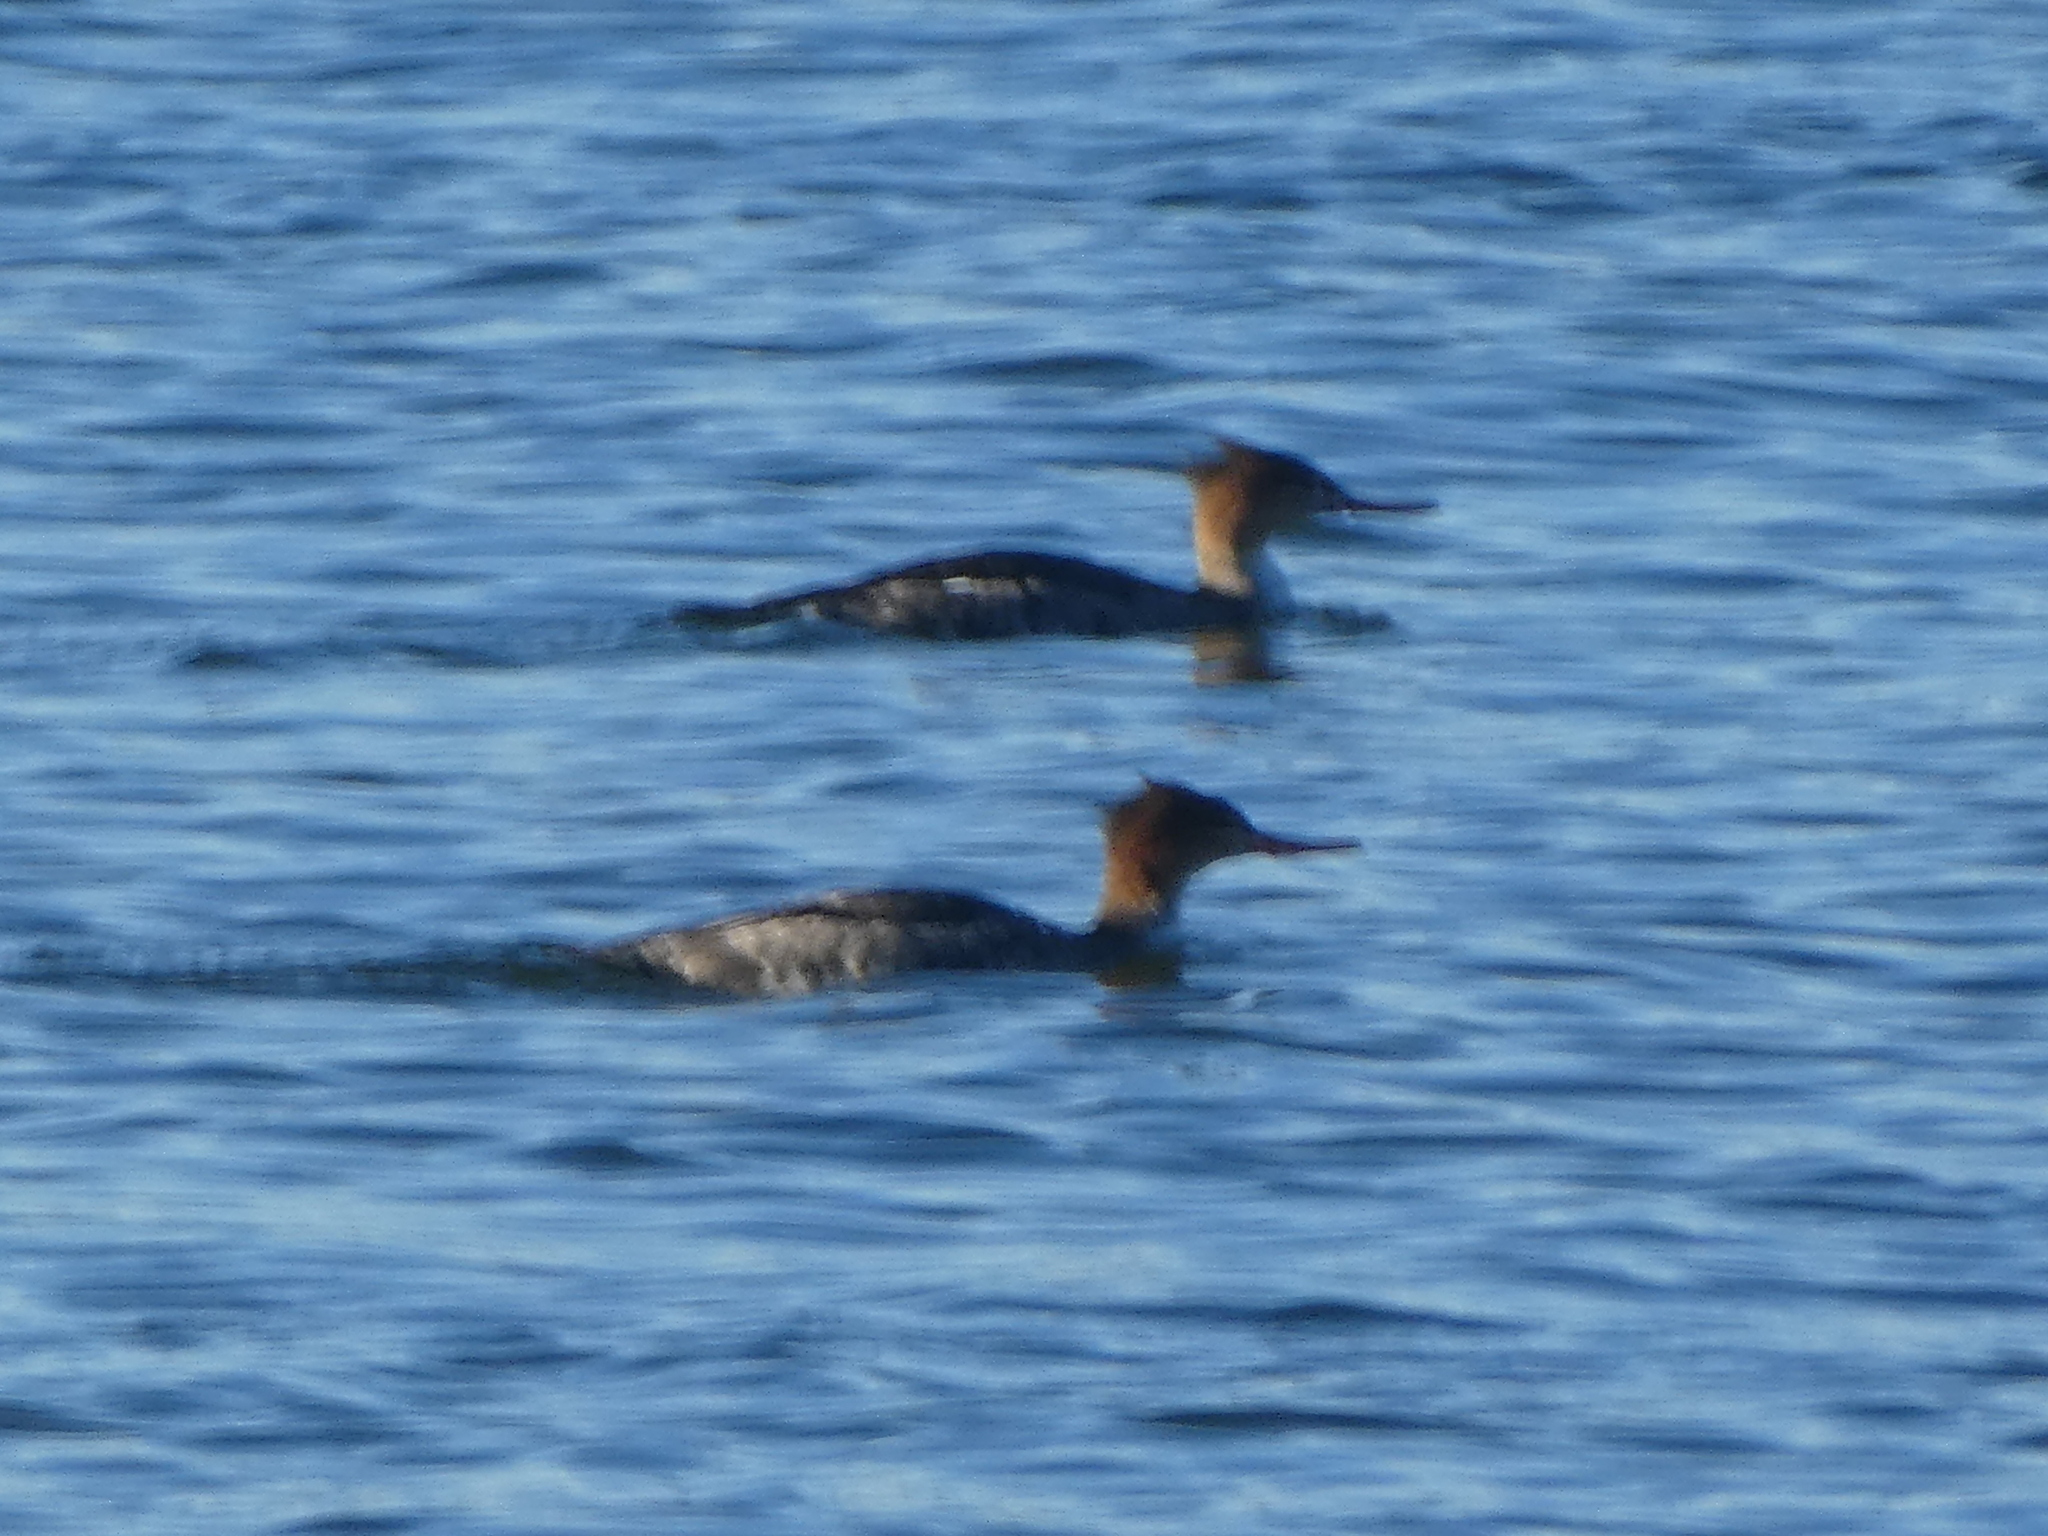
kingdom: Animalia
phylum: Chordata
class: Aves
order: Anseriformes
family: Anatidae
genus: Mergus
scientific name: Mergus serrator
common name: Red-breasted merganser
